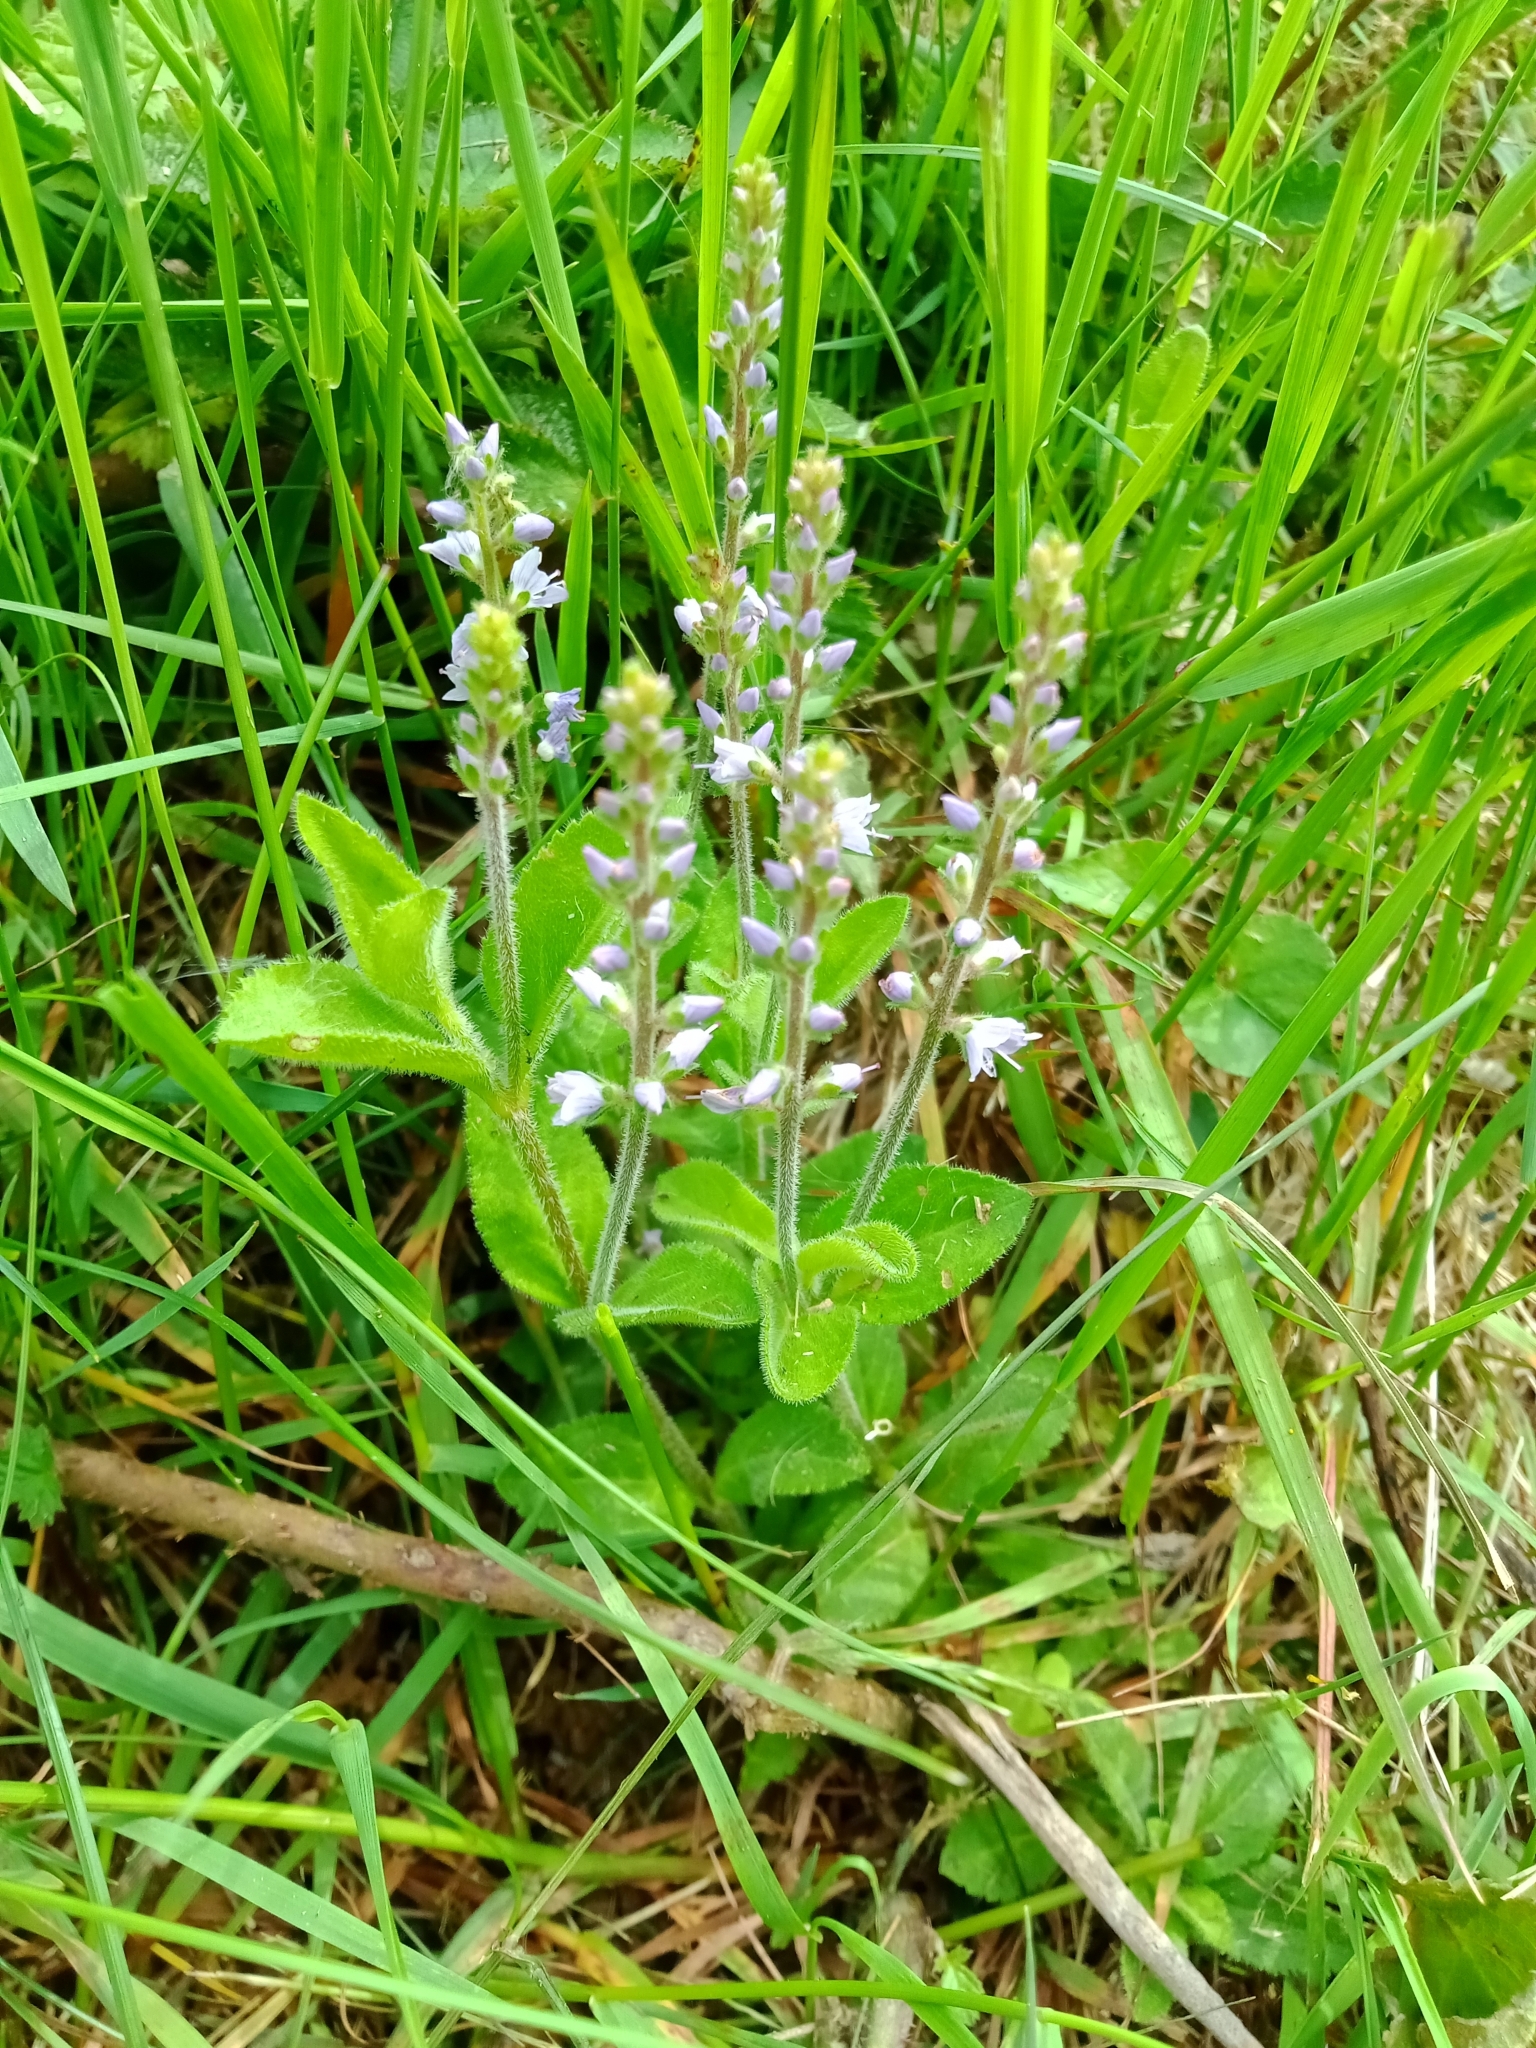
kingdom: Plantae
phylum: Tracheophyta
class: Magnoliopsida
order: Lamiales
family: Plantaginaceae
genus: Veronica
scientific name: Veronica officinalis
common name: Common speedwell
